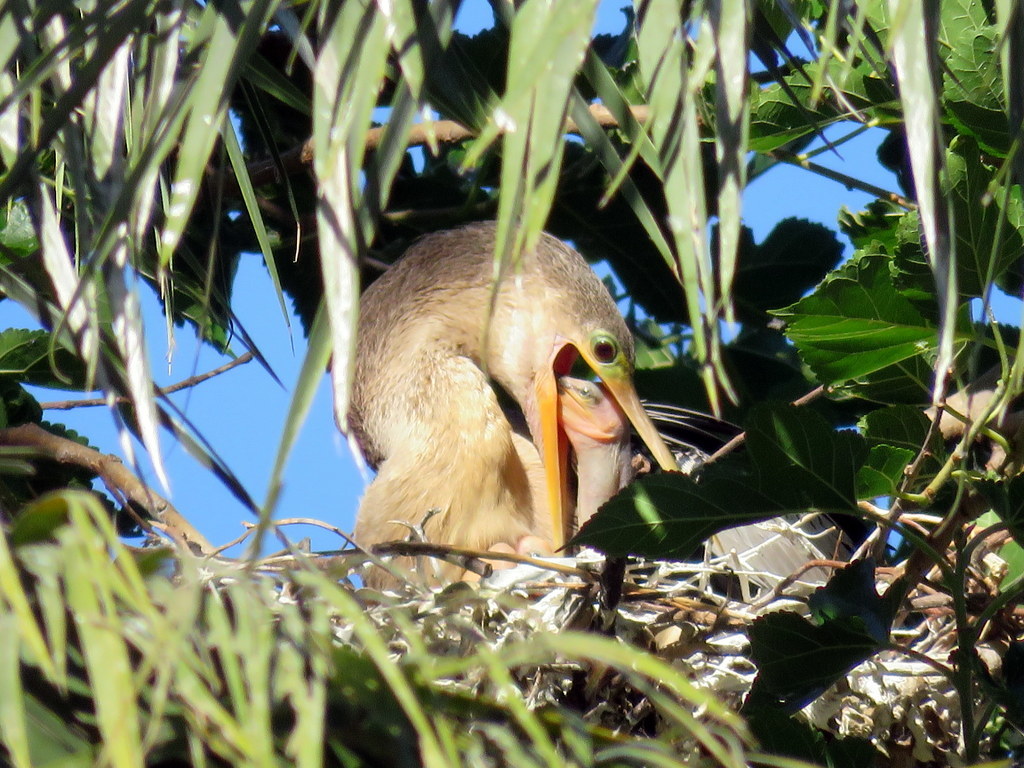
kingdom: Animalia
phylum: Chordata
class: Aves
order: Suliformes
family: Anhingidae
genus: Anhinga
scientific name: Anhinga anhinga
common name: Anhinga
